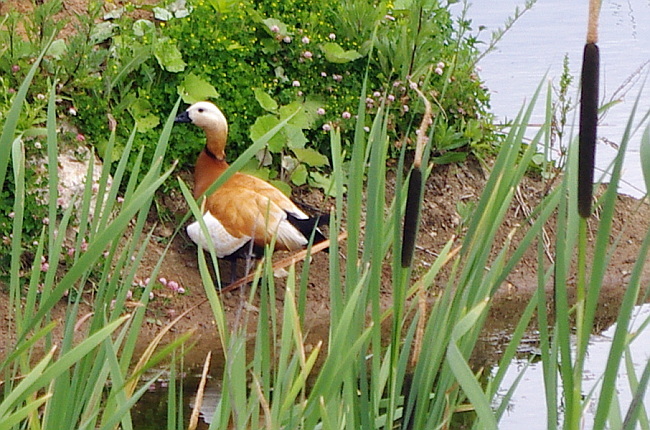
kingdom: Animalia
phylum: Chordata
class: Aves
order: Anseriformes
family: Anatidae
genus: Tadorna
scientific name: Tadorna ferruginea
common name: Ruddy shelduck
